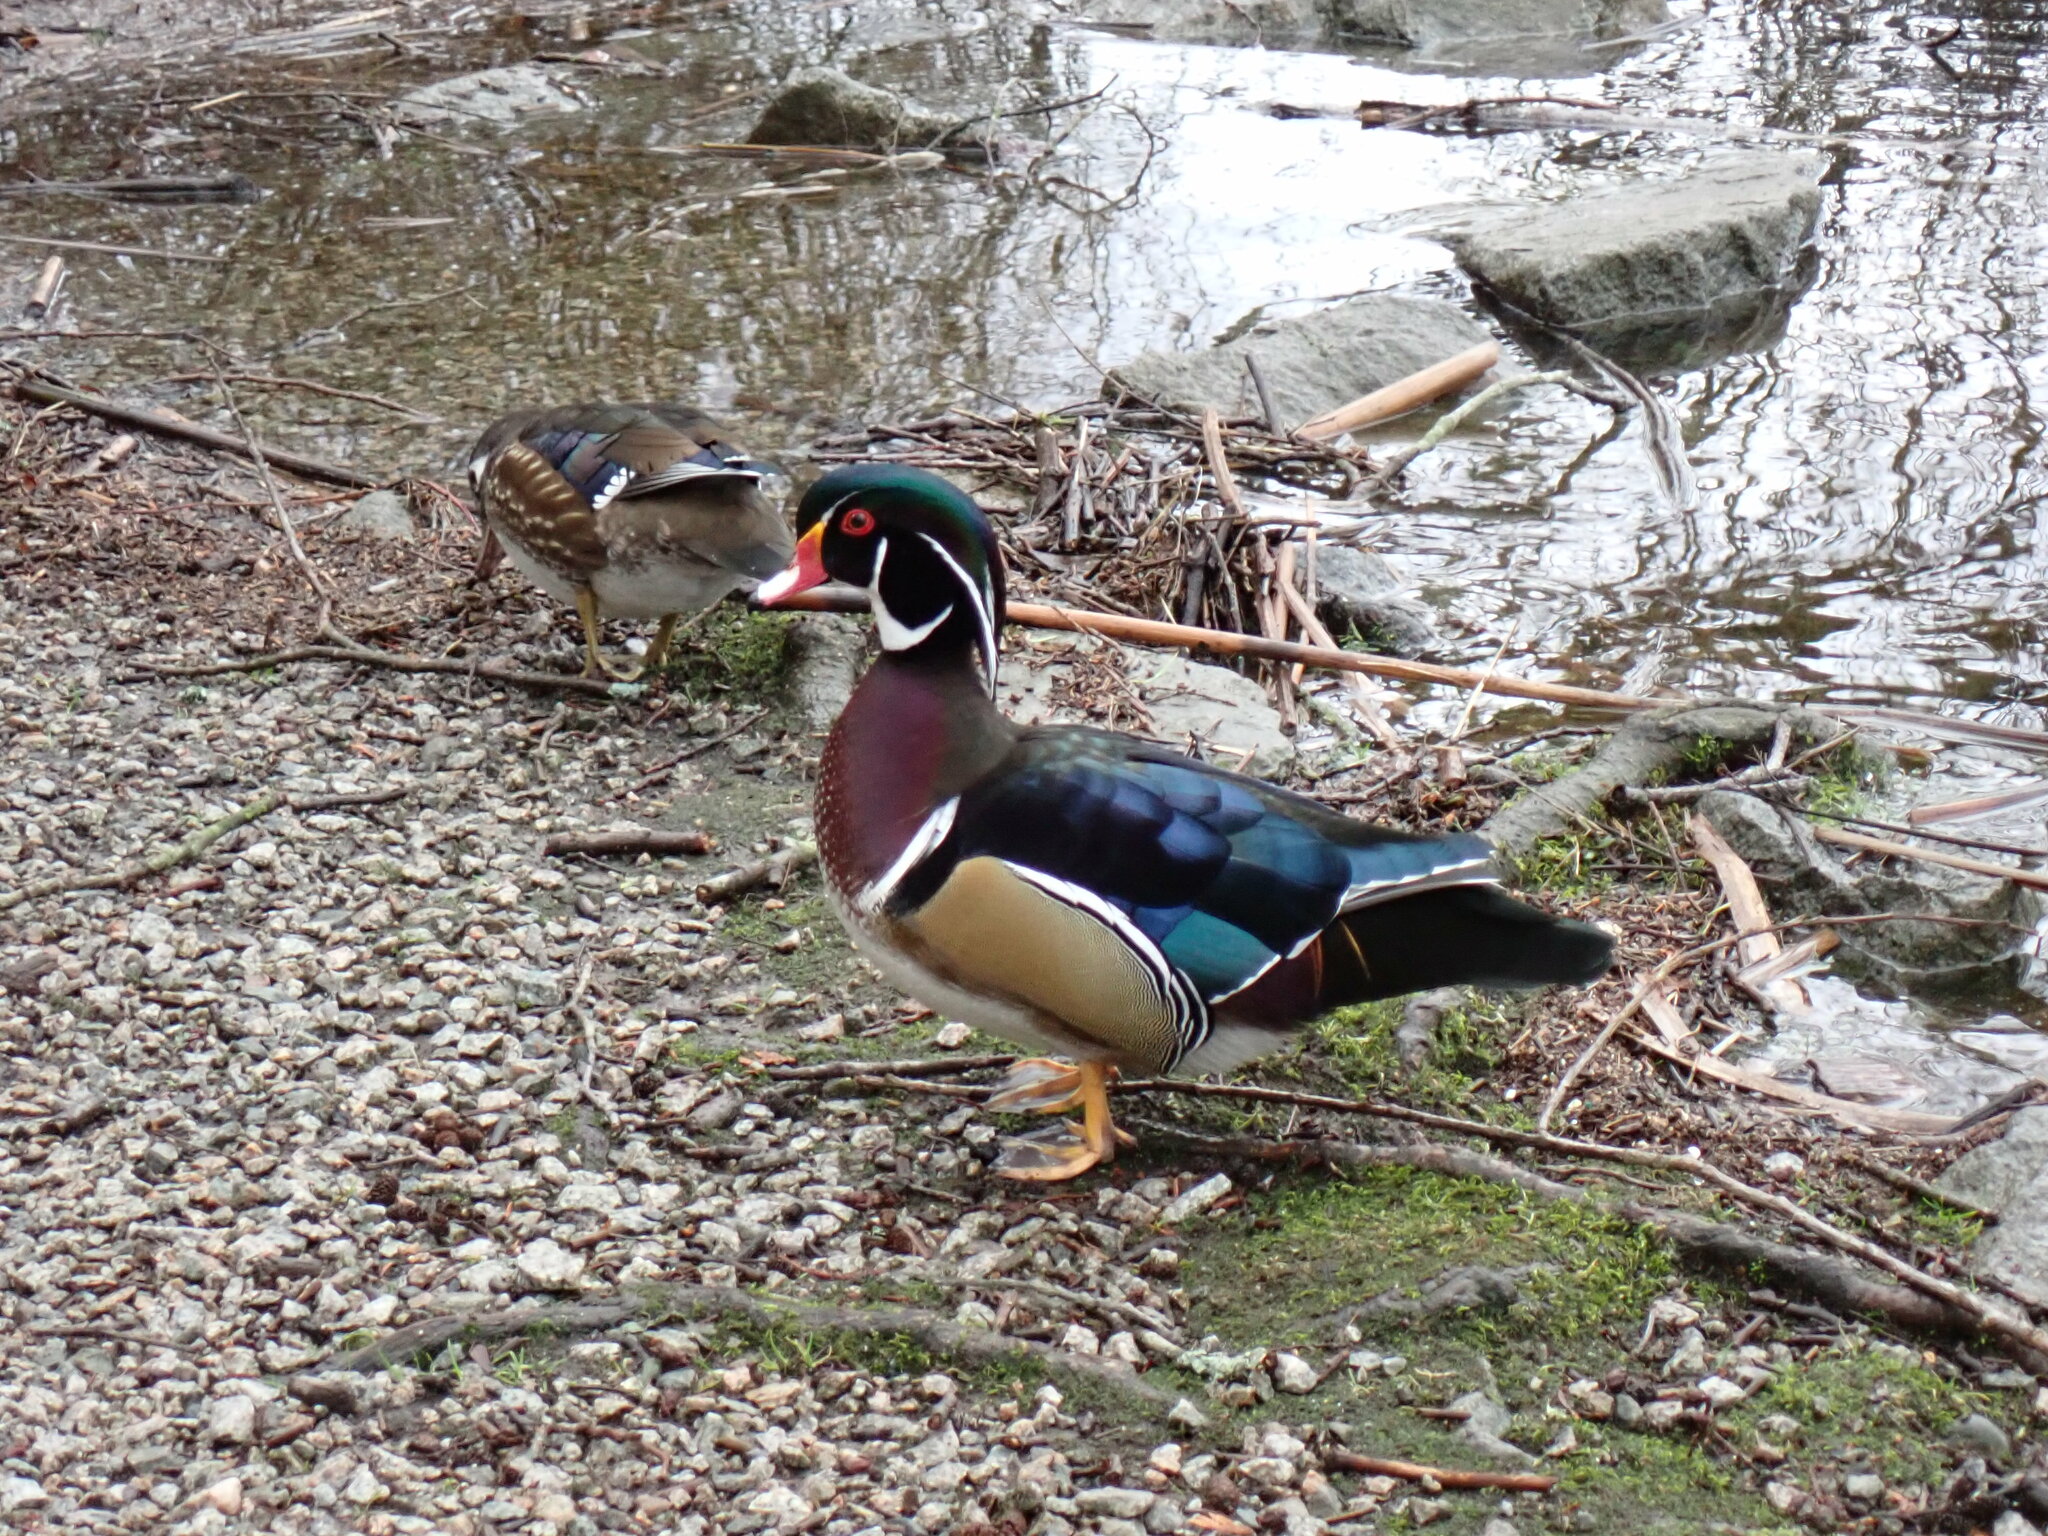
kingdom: Animalia
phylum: Chordata
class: Aves
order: Anseriformes
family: Anatidae
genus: Aix
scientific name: Aix sponsa
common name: Wood duck
